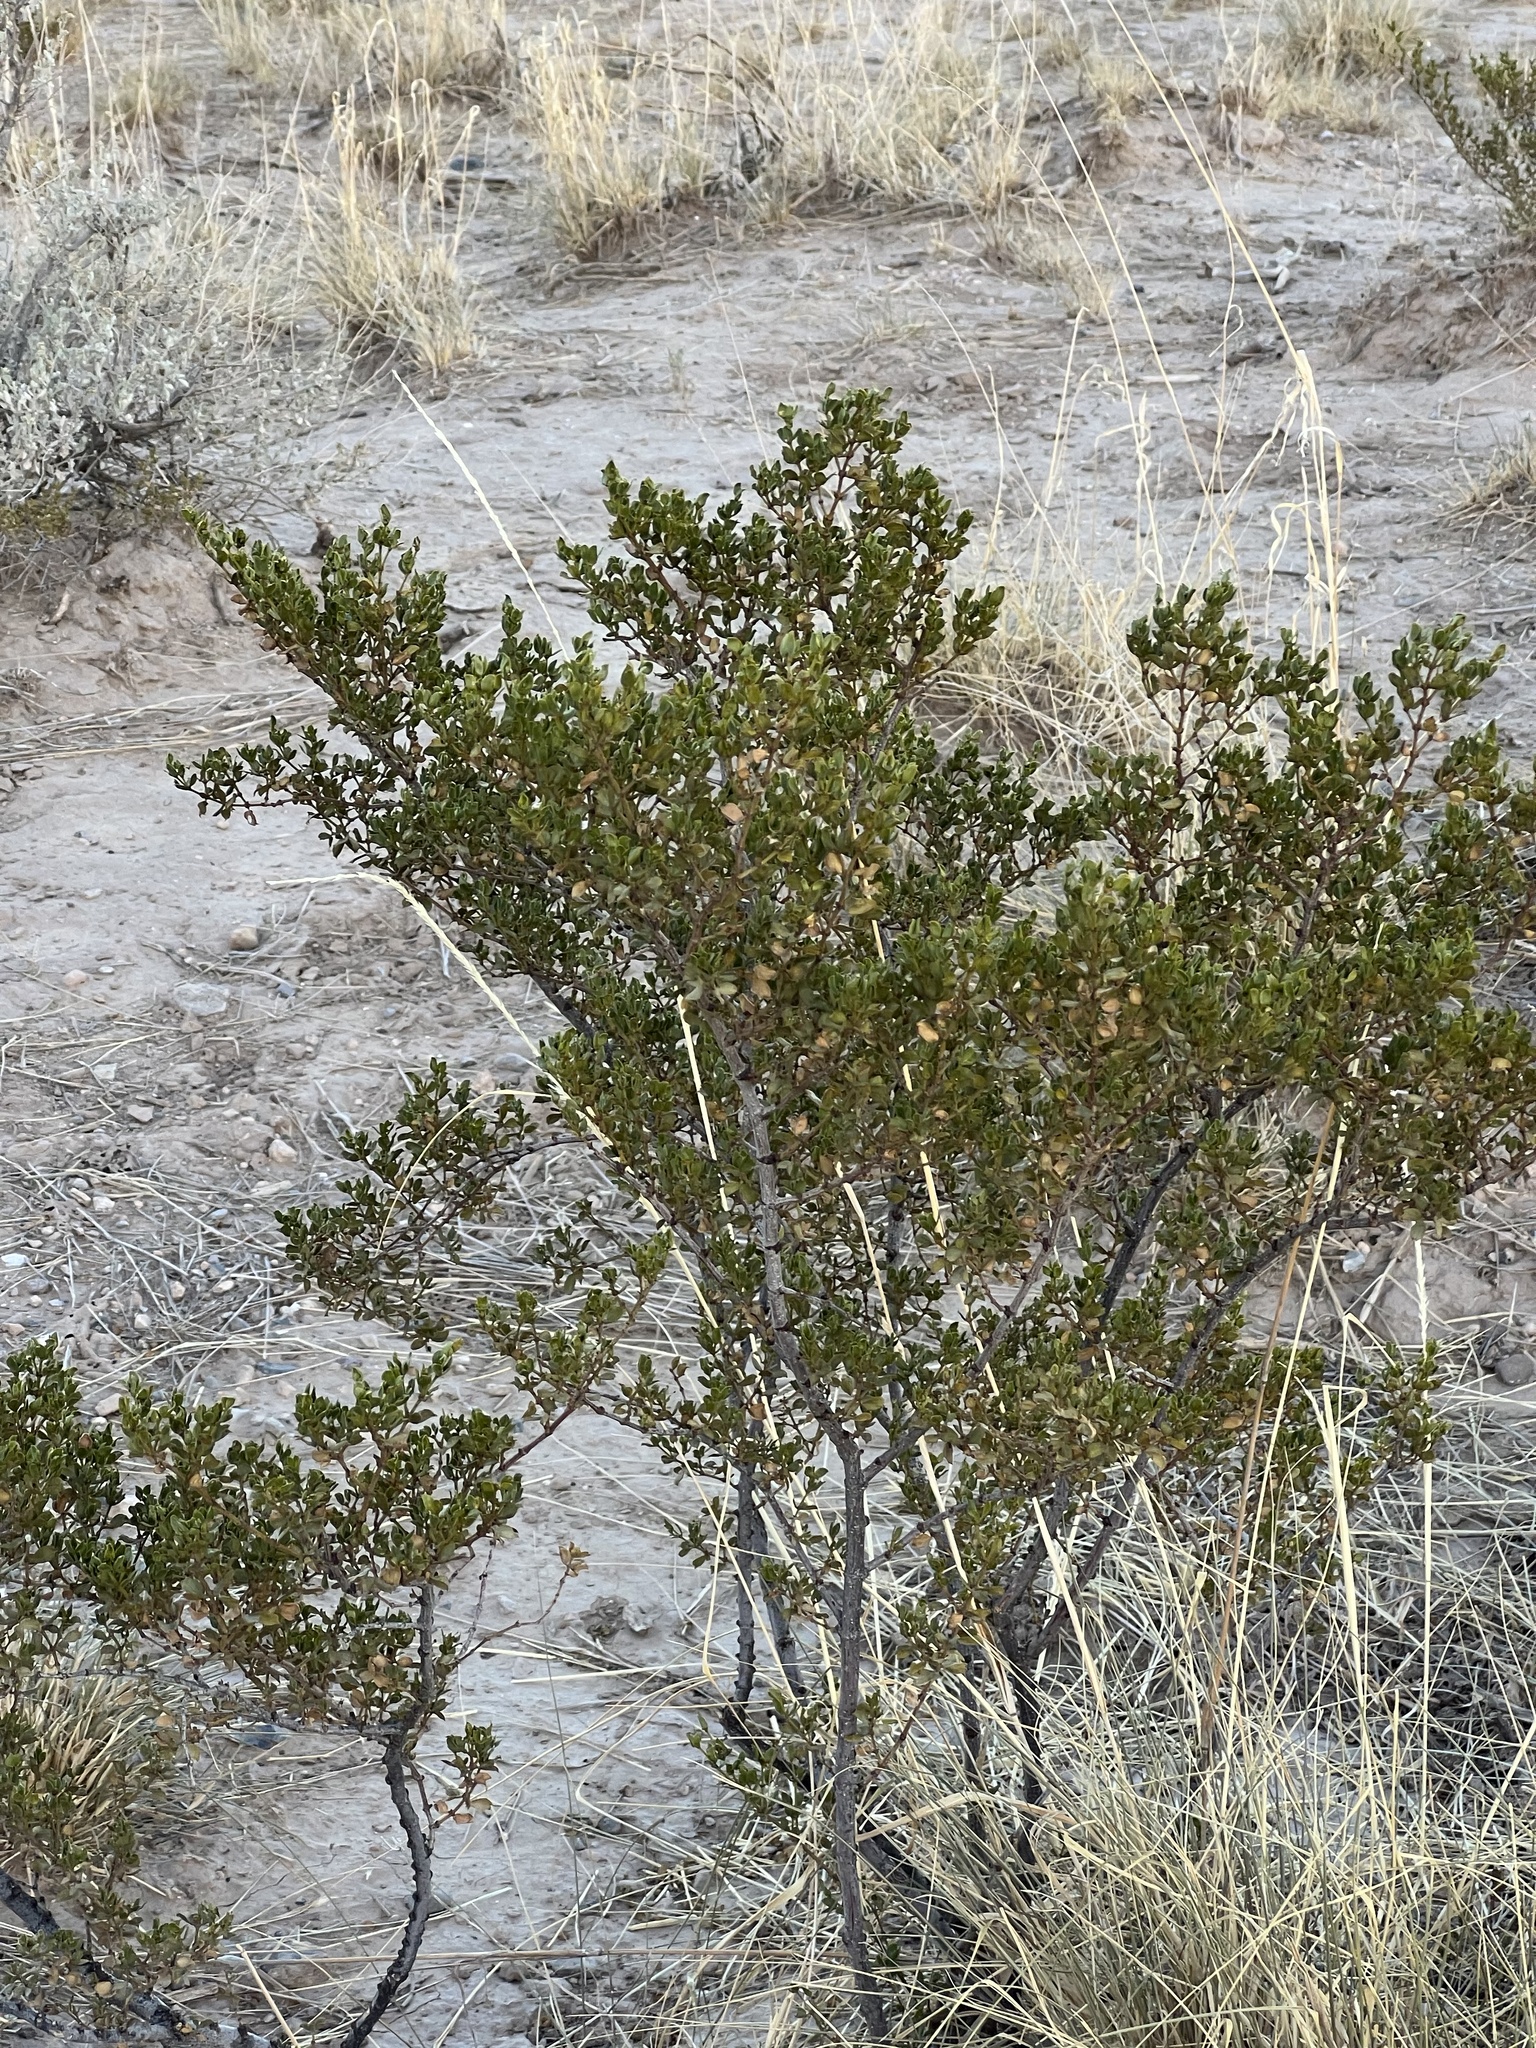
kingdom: Plantae
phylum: Tracheophyta
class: Magnoliopsida
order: Zygophyllales
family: Zygophyllaceae
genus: Larrea
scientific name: Larrea tridentata
